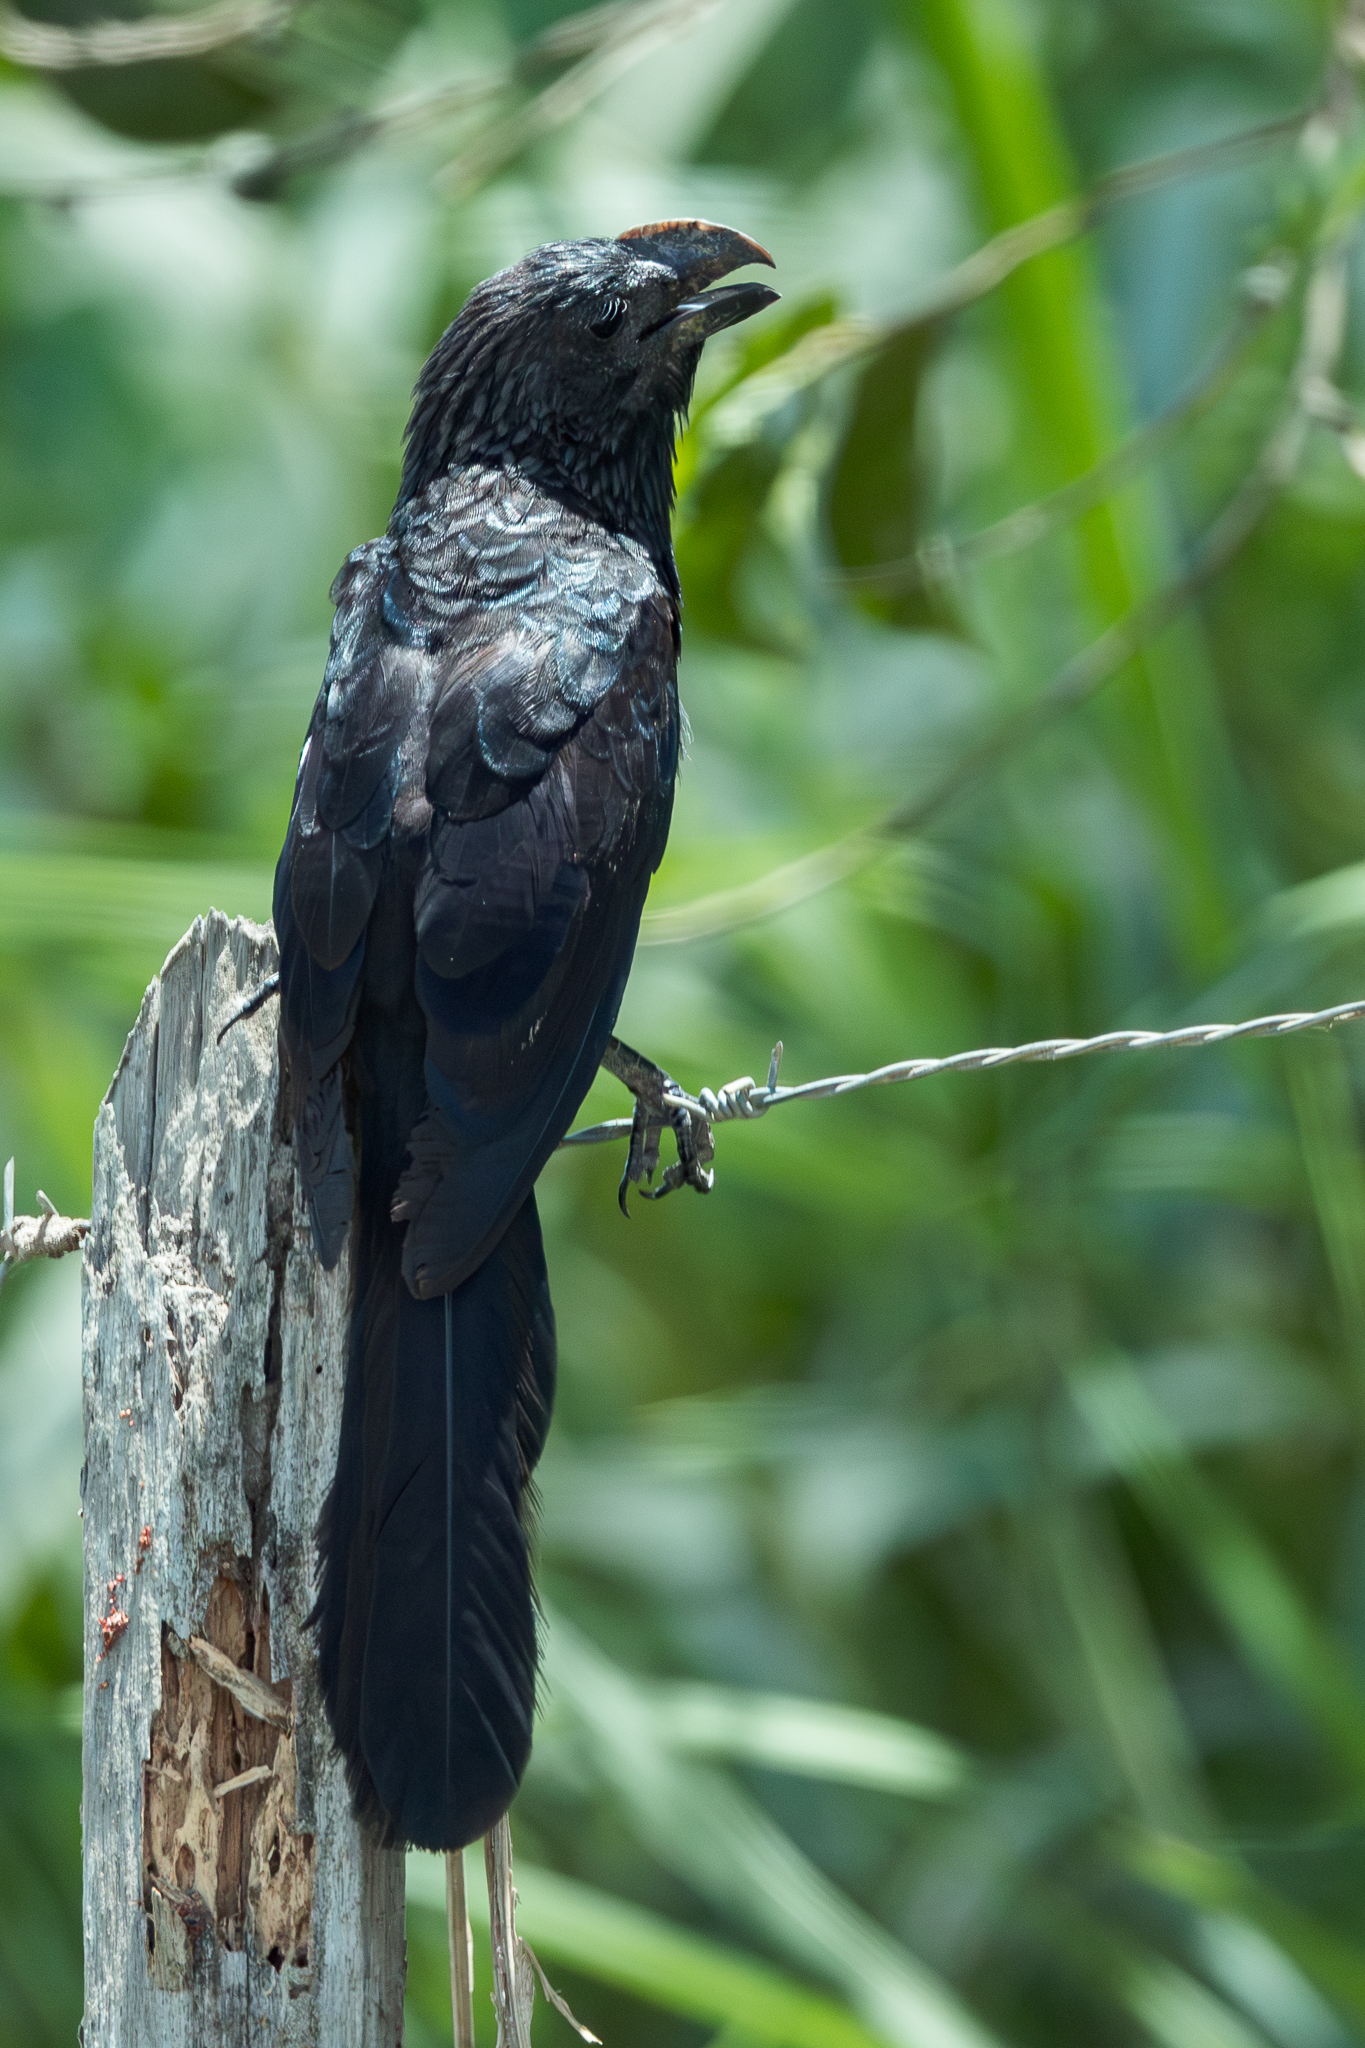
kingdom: Animalia
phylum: Chordata
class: Aves
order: Cuculiformes
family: Cuculidae
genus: Crotophaga
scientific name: Crotophaga ani
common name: Smooth-billed ani
